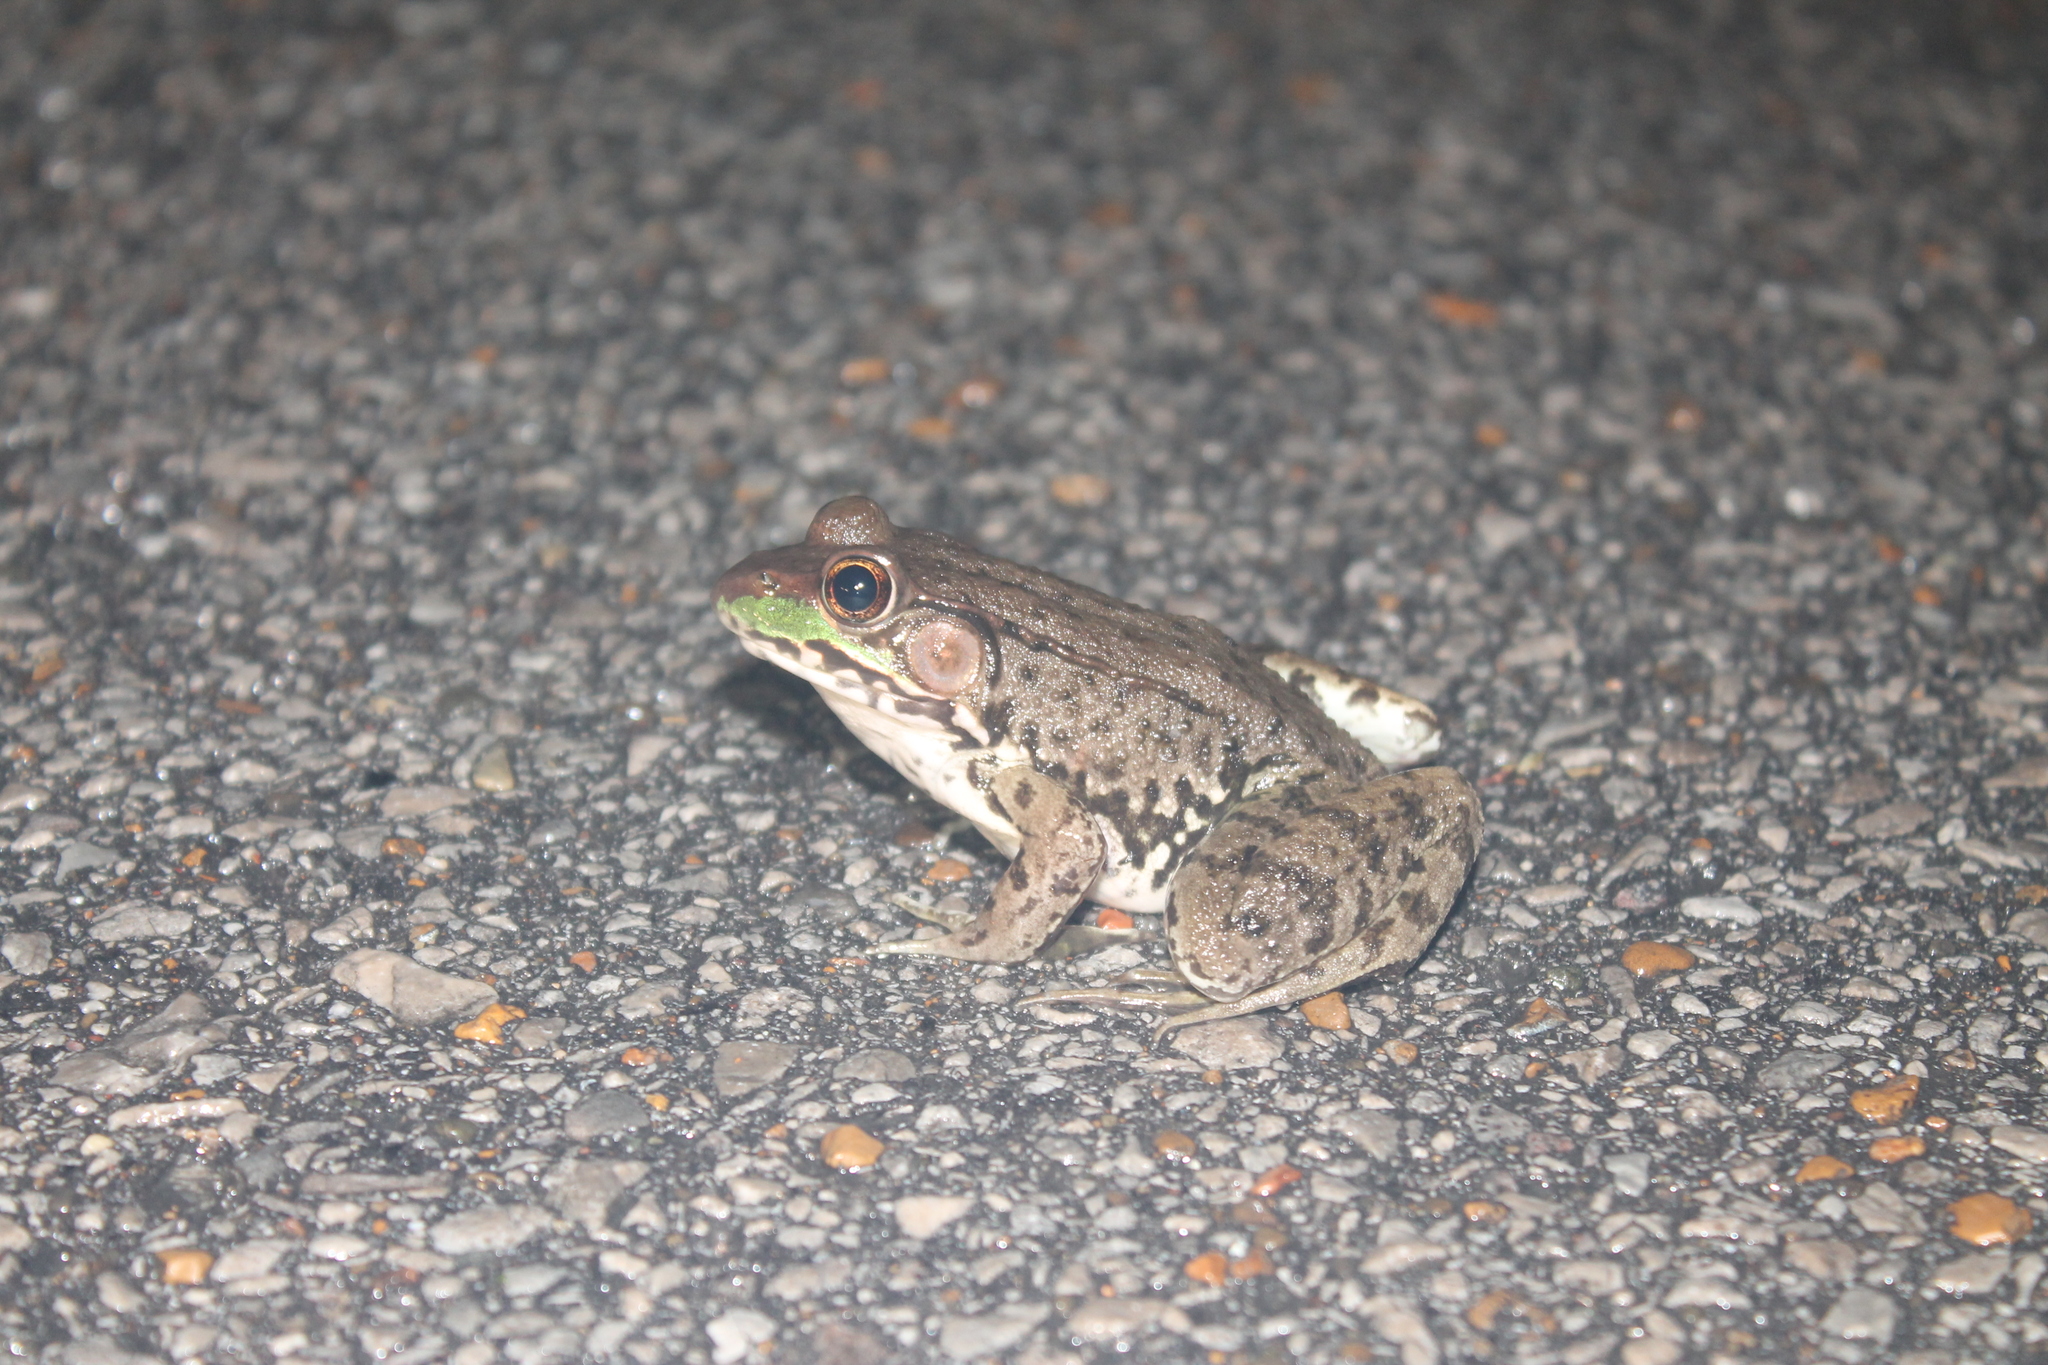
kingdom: Animalia
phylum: Chordata
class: Amphibia
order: Anura
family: Ranidae
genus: Lithobates
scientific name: Lithobates clamitans
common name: Green frog
